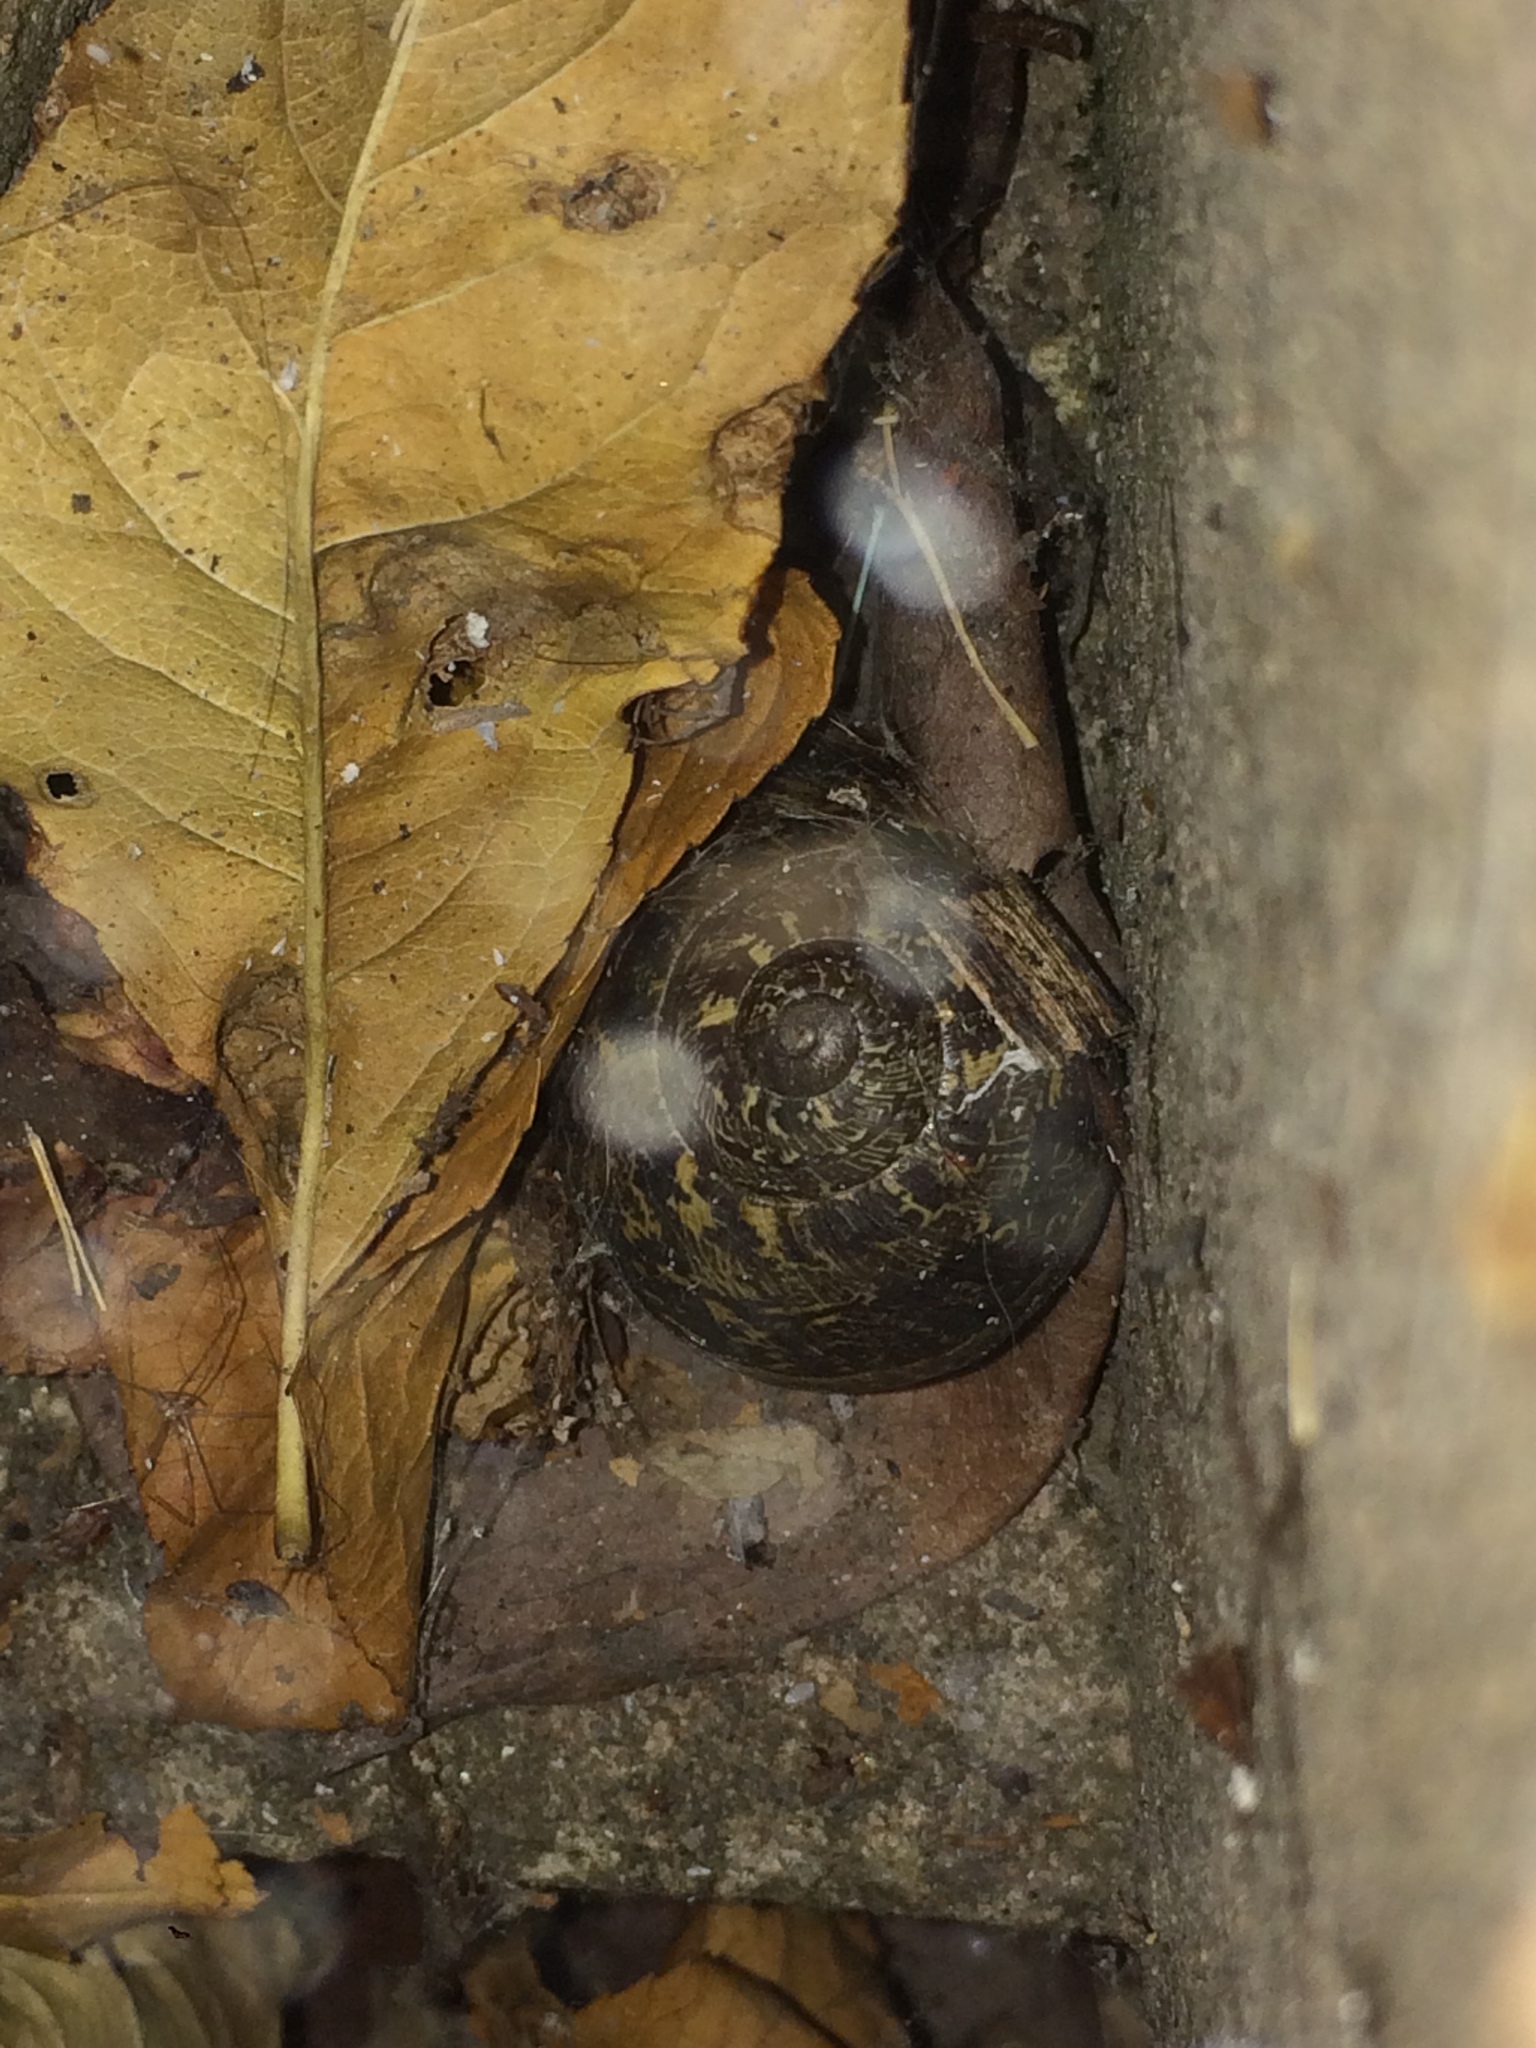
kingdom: Animalia
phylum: Mollusca
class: Gastropoda
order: Stylommatophora
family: Helicidae
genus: Cornu
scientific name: Cornu aspersum
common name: Brown garden snail
